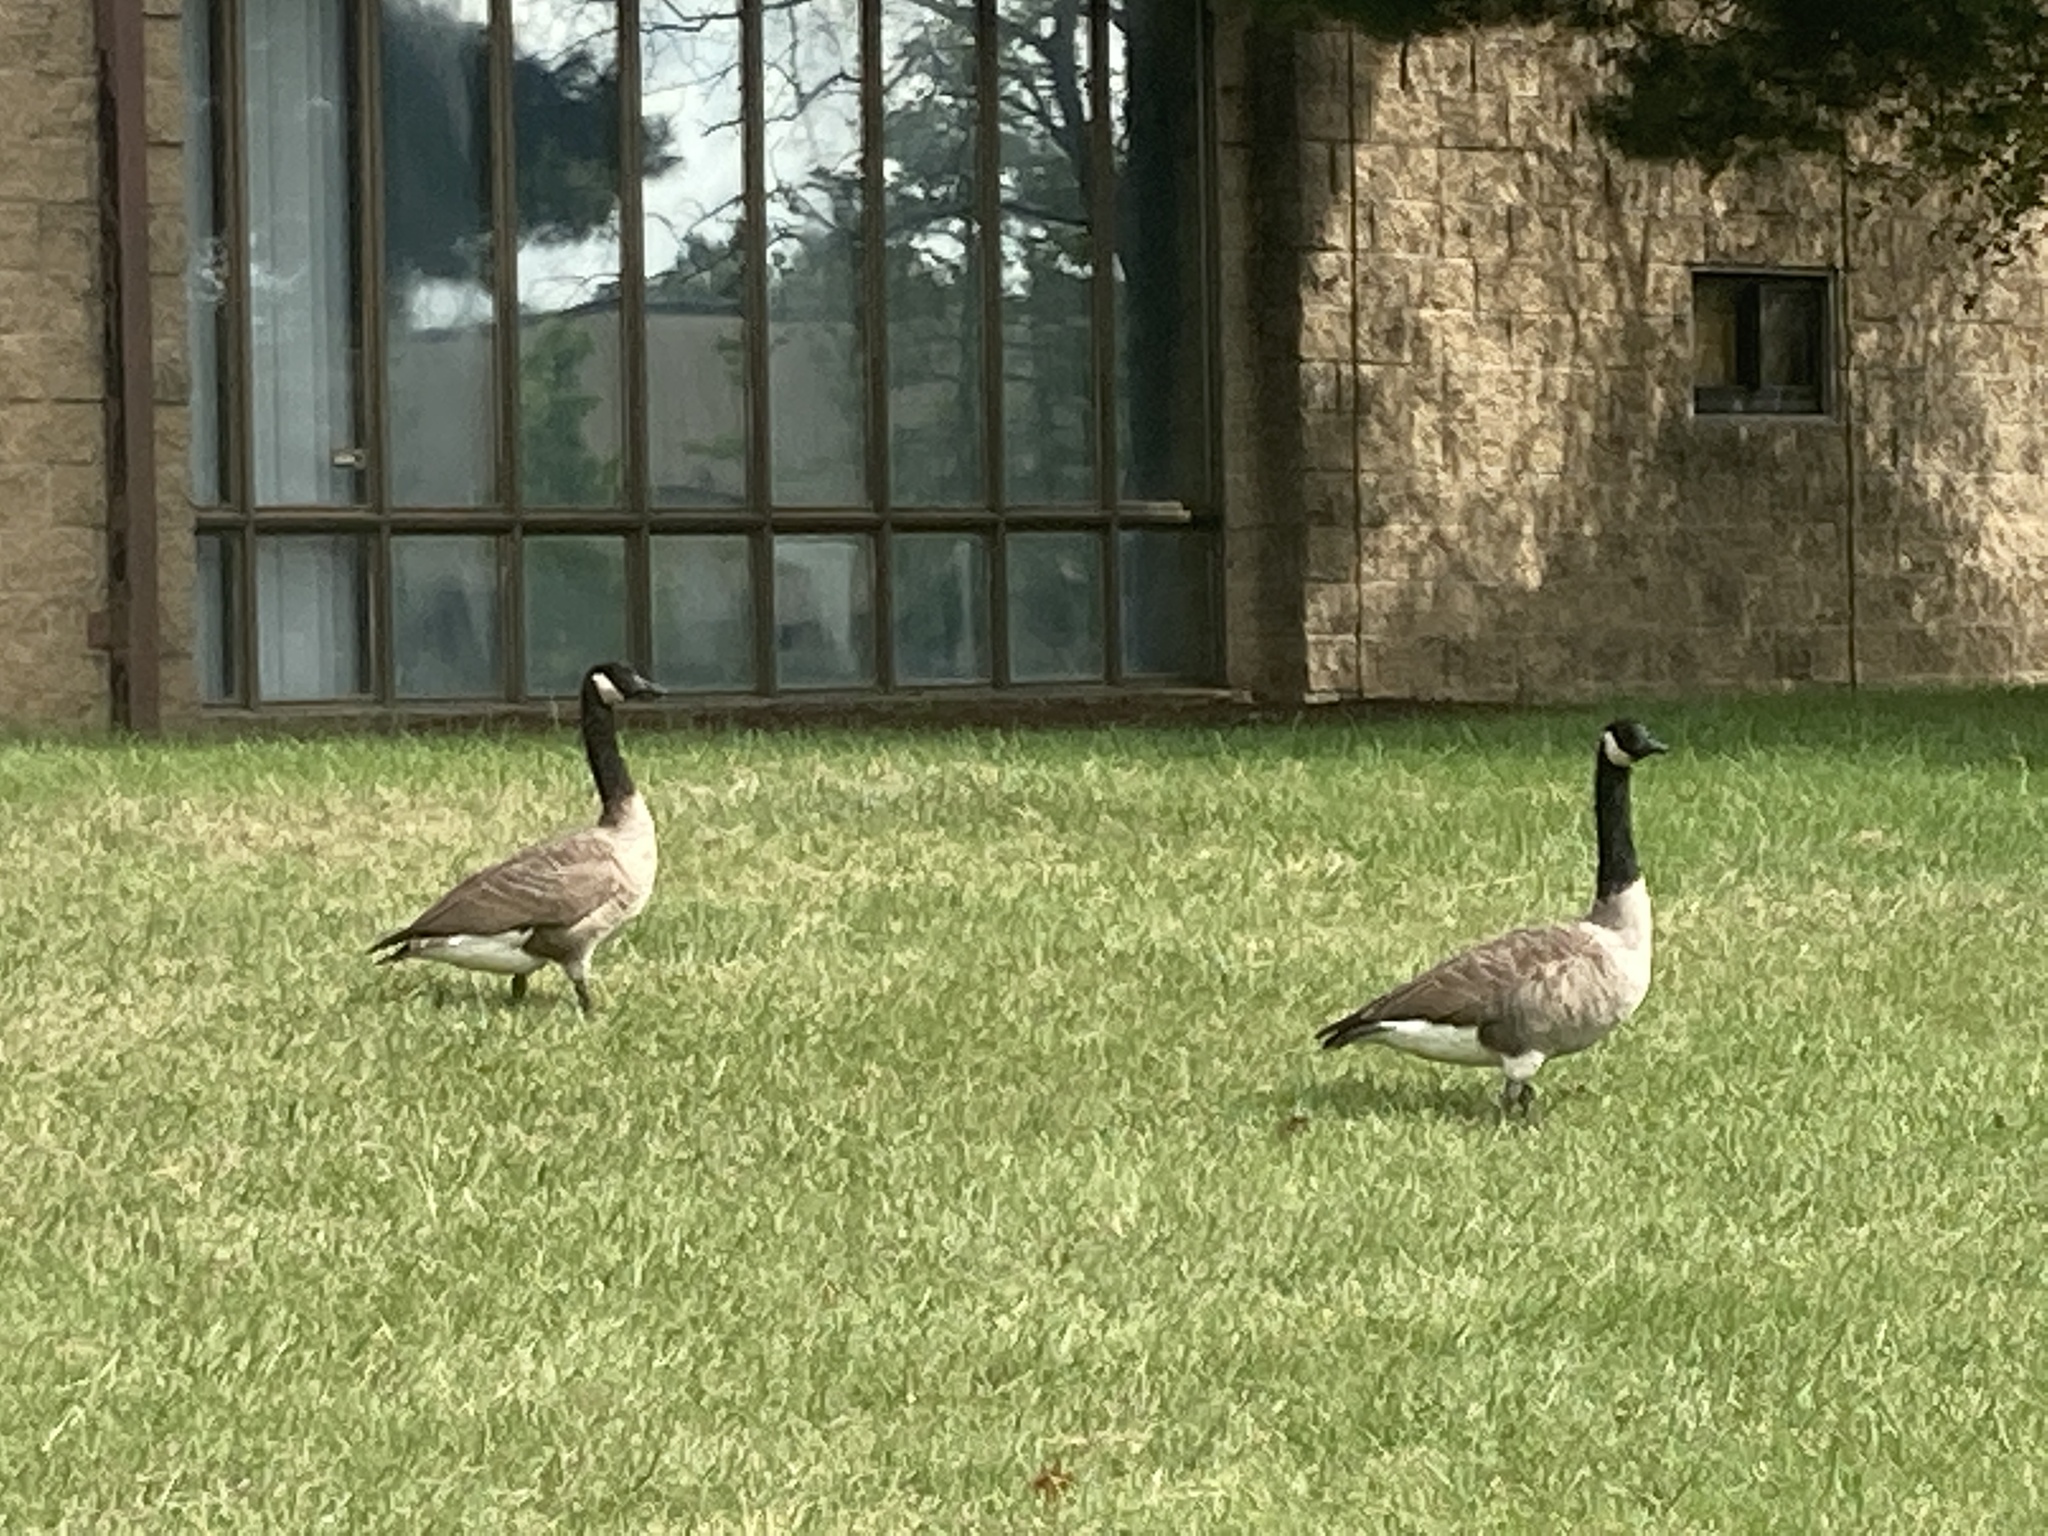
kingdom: Animalia
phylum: Chordata
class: Aves
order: Anseriformes
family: Anatidae
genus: Branta
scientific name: Branta canadensis
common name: Canada goose
